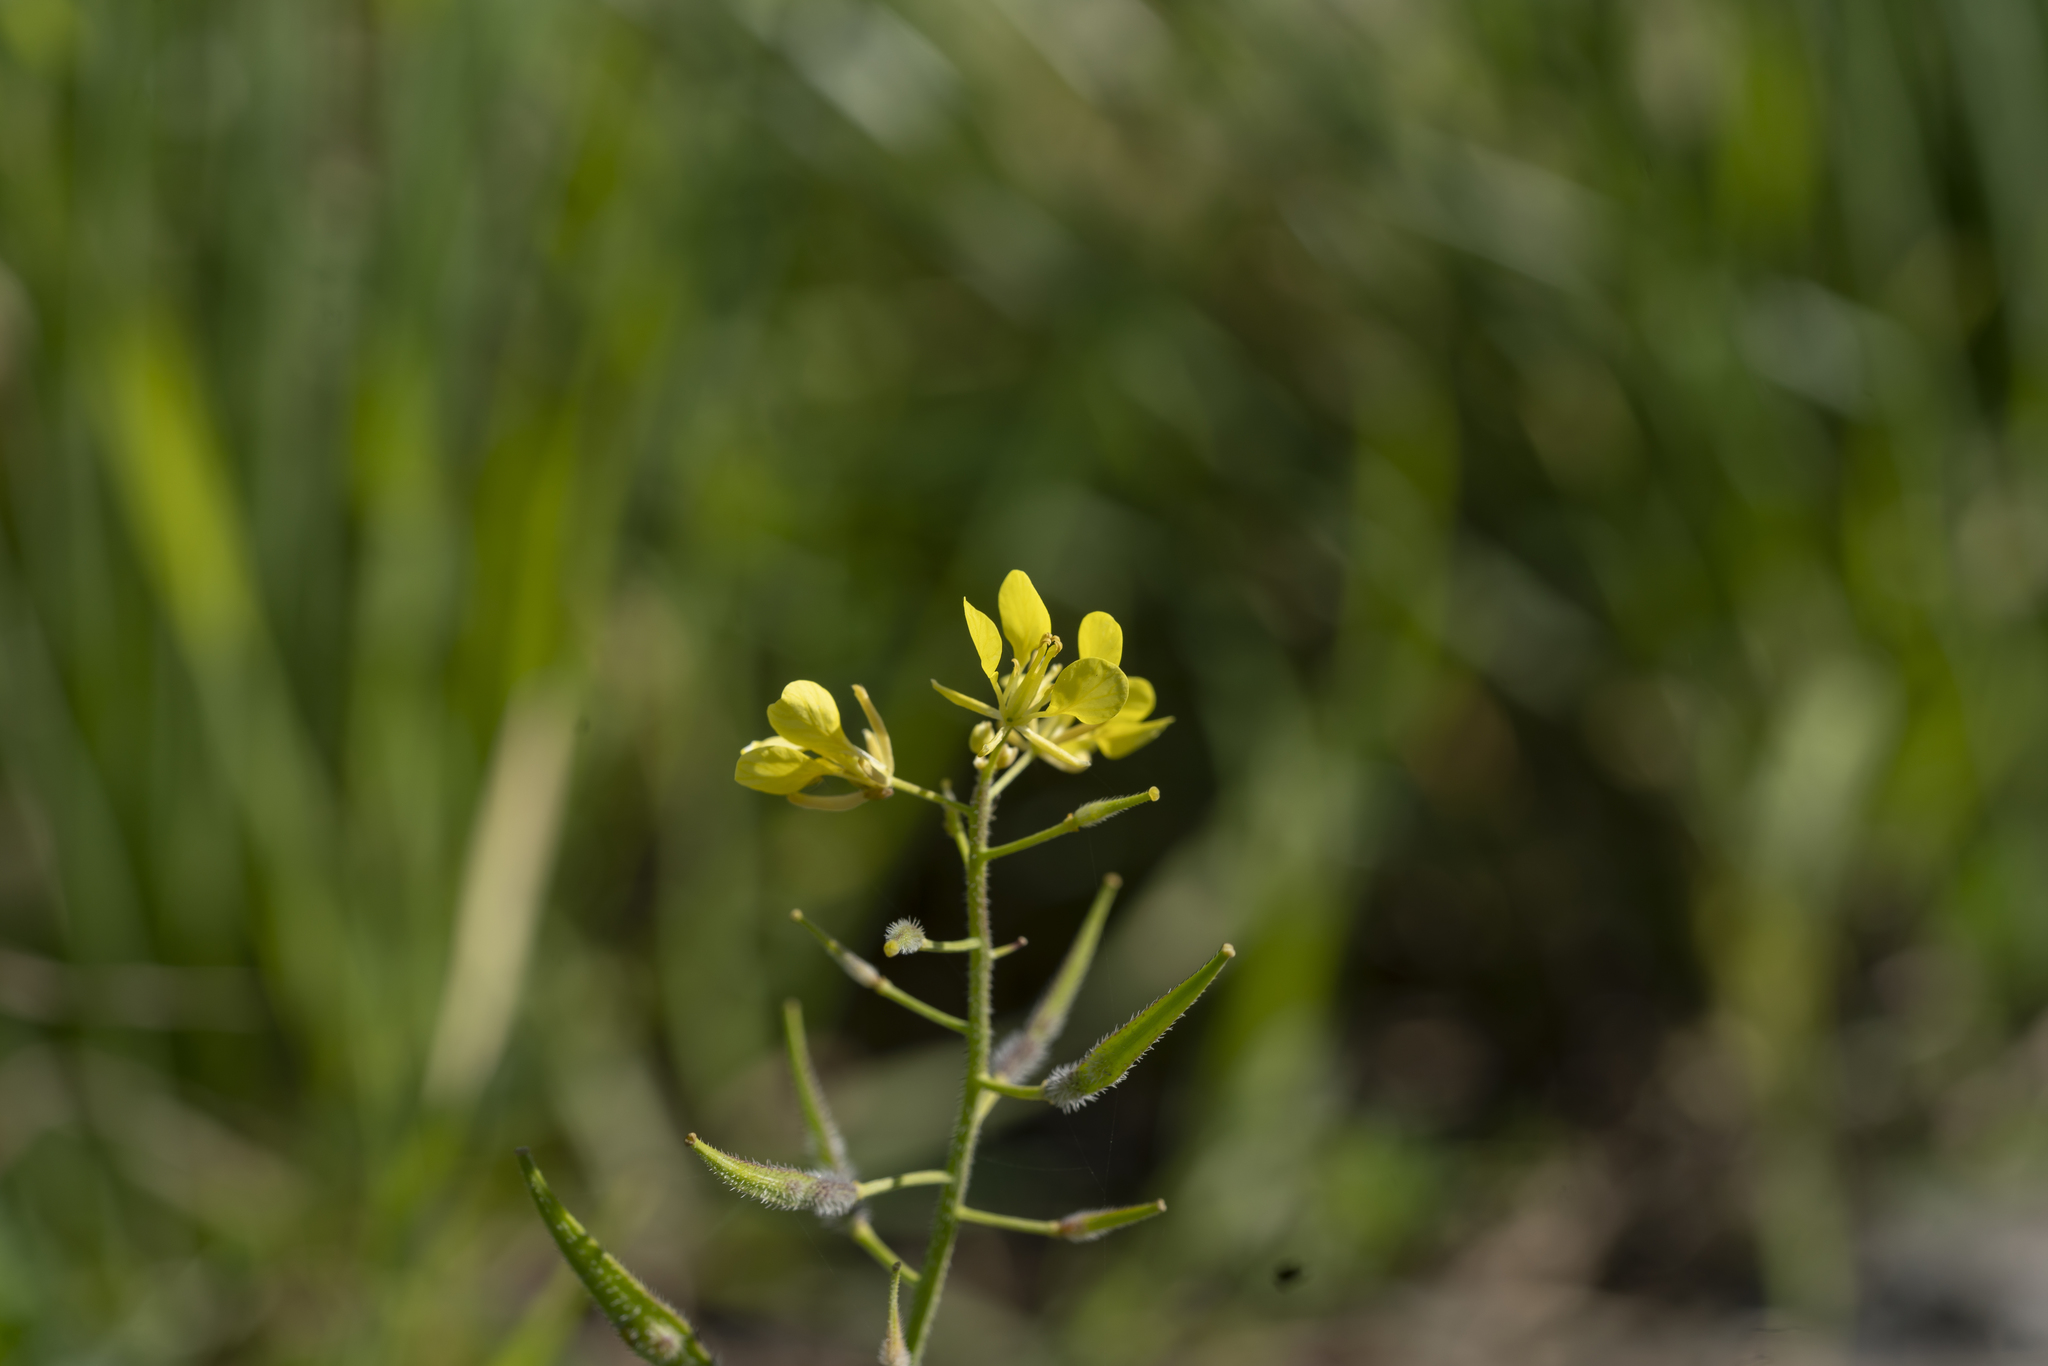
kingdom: Plantae
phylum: Tracheophyta
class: Magnoliopsida
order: Brassicales
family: Brassicaceae
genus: Sinapis
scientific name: Sinapis alba
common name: White mustard
